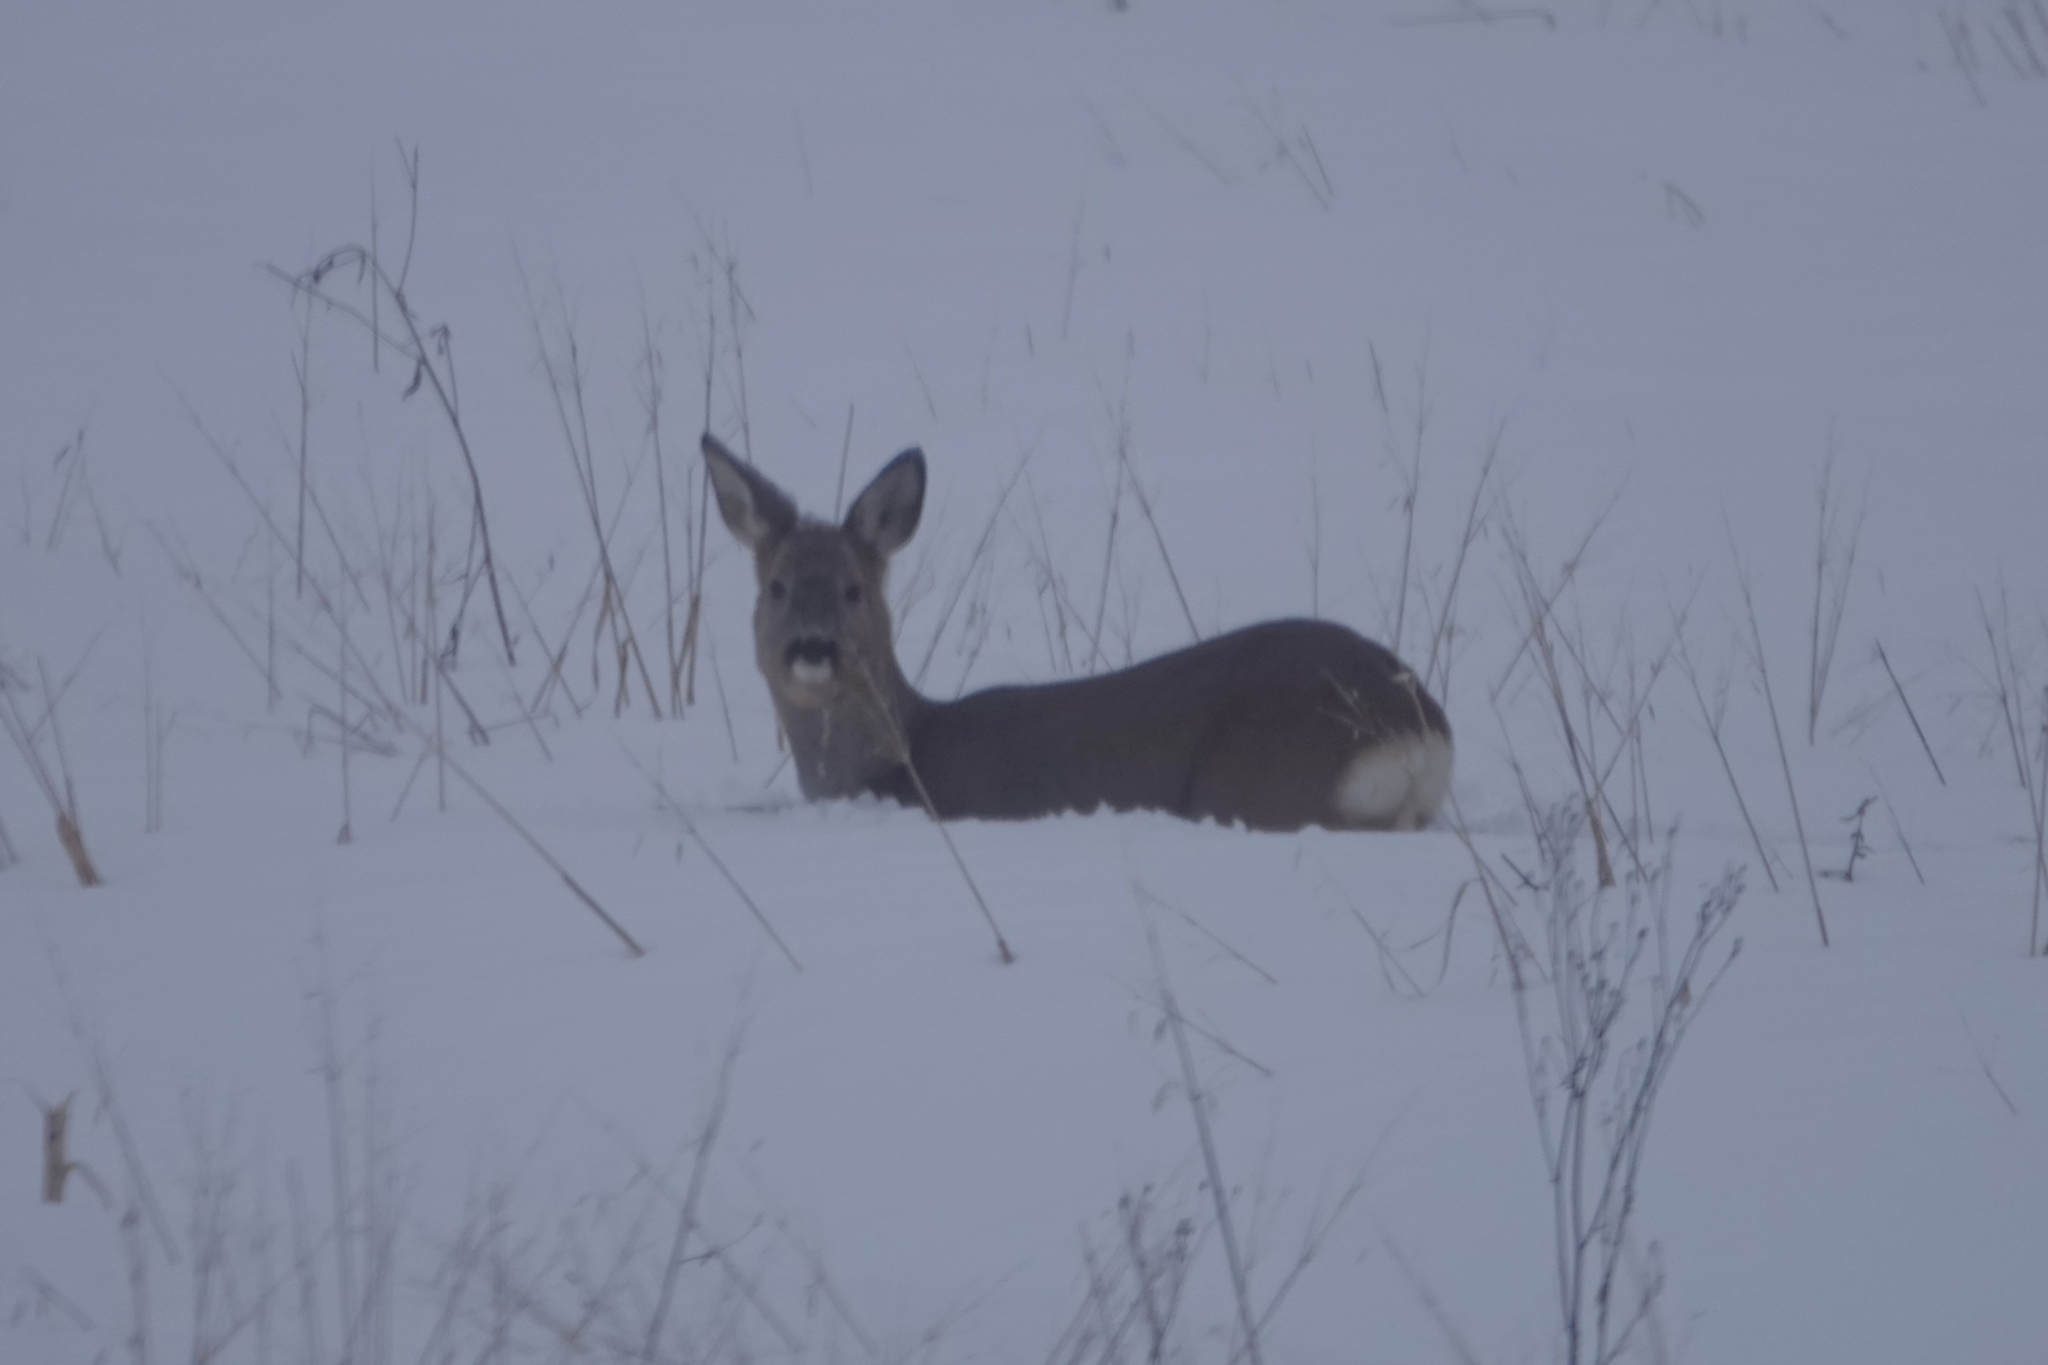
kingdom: Animalia
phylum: Chordata
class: Mammalia
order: Artiodactyla
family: Cervidae
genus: Capreolus
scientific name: Capreolus capreolus
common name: Western roe deer
